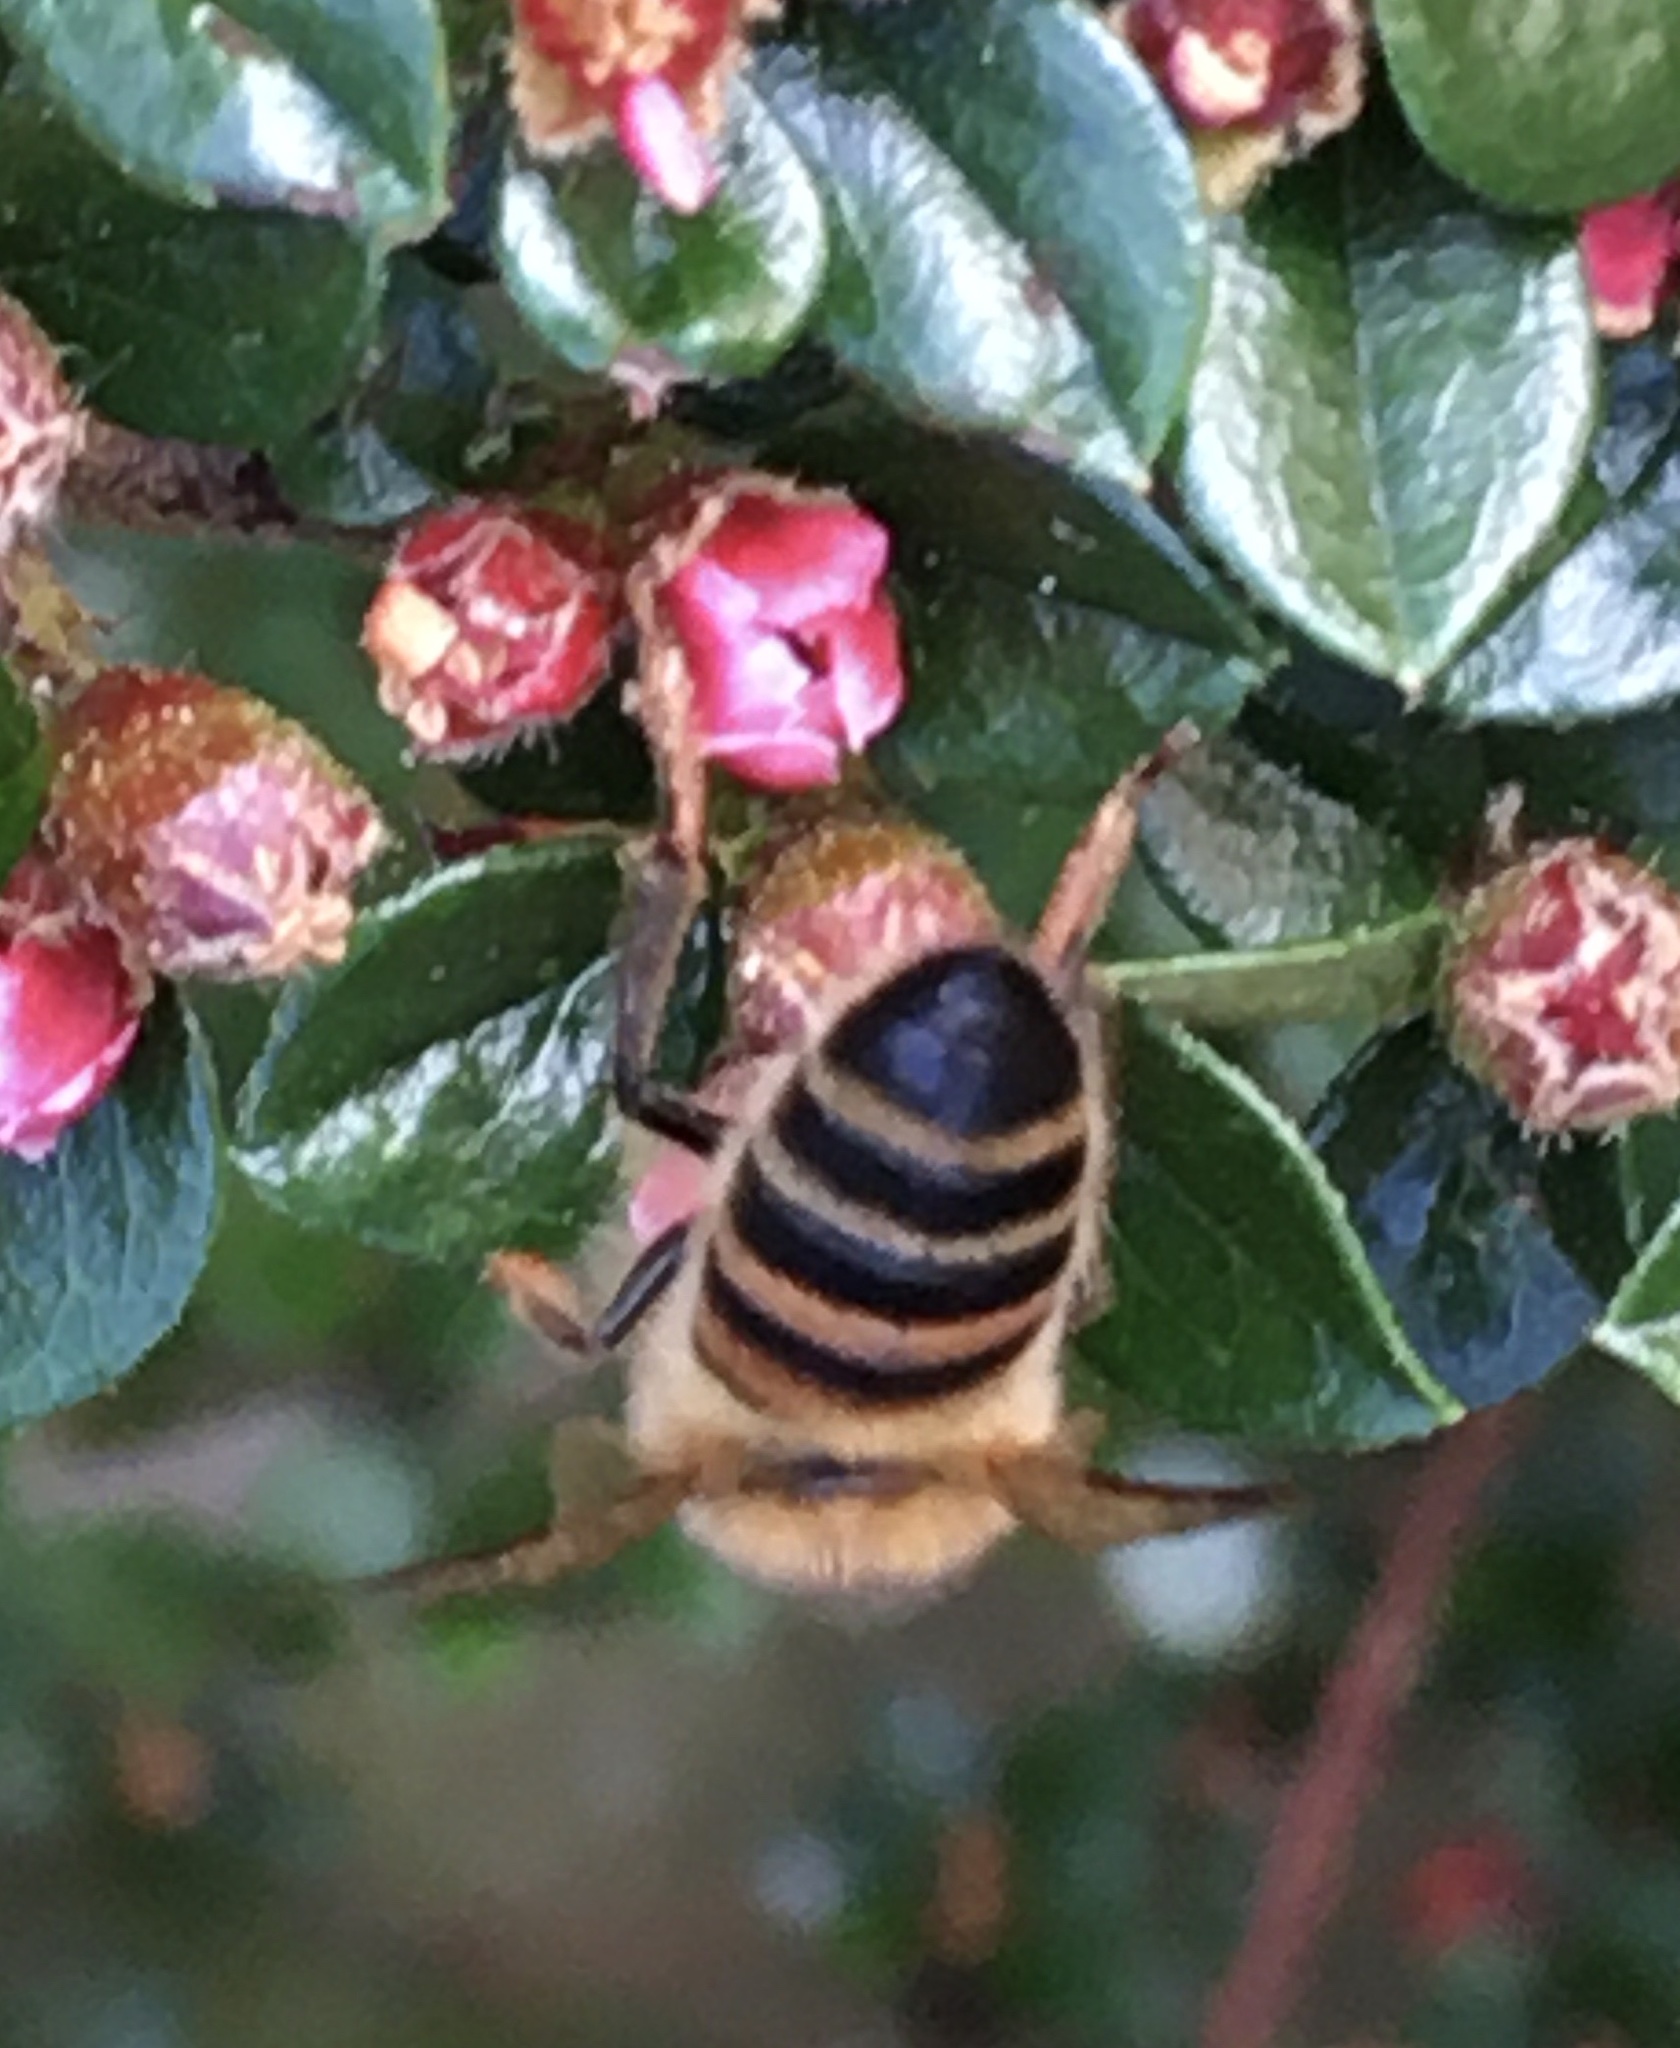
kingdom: Animalia
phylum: Arthropoda
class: Insecta
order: Hymenoptera
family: Apidae
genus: Apis
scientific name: Apis mellifera
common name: Honey bee
